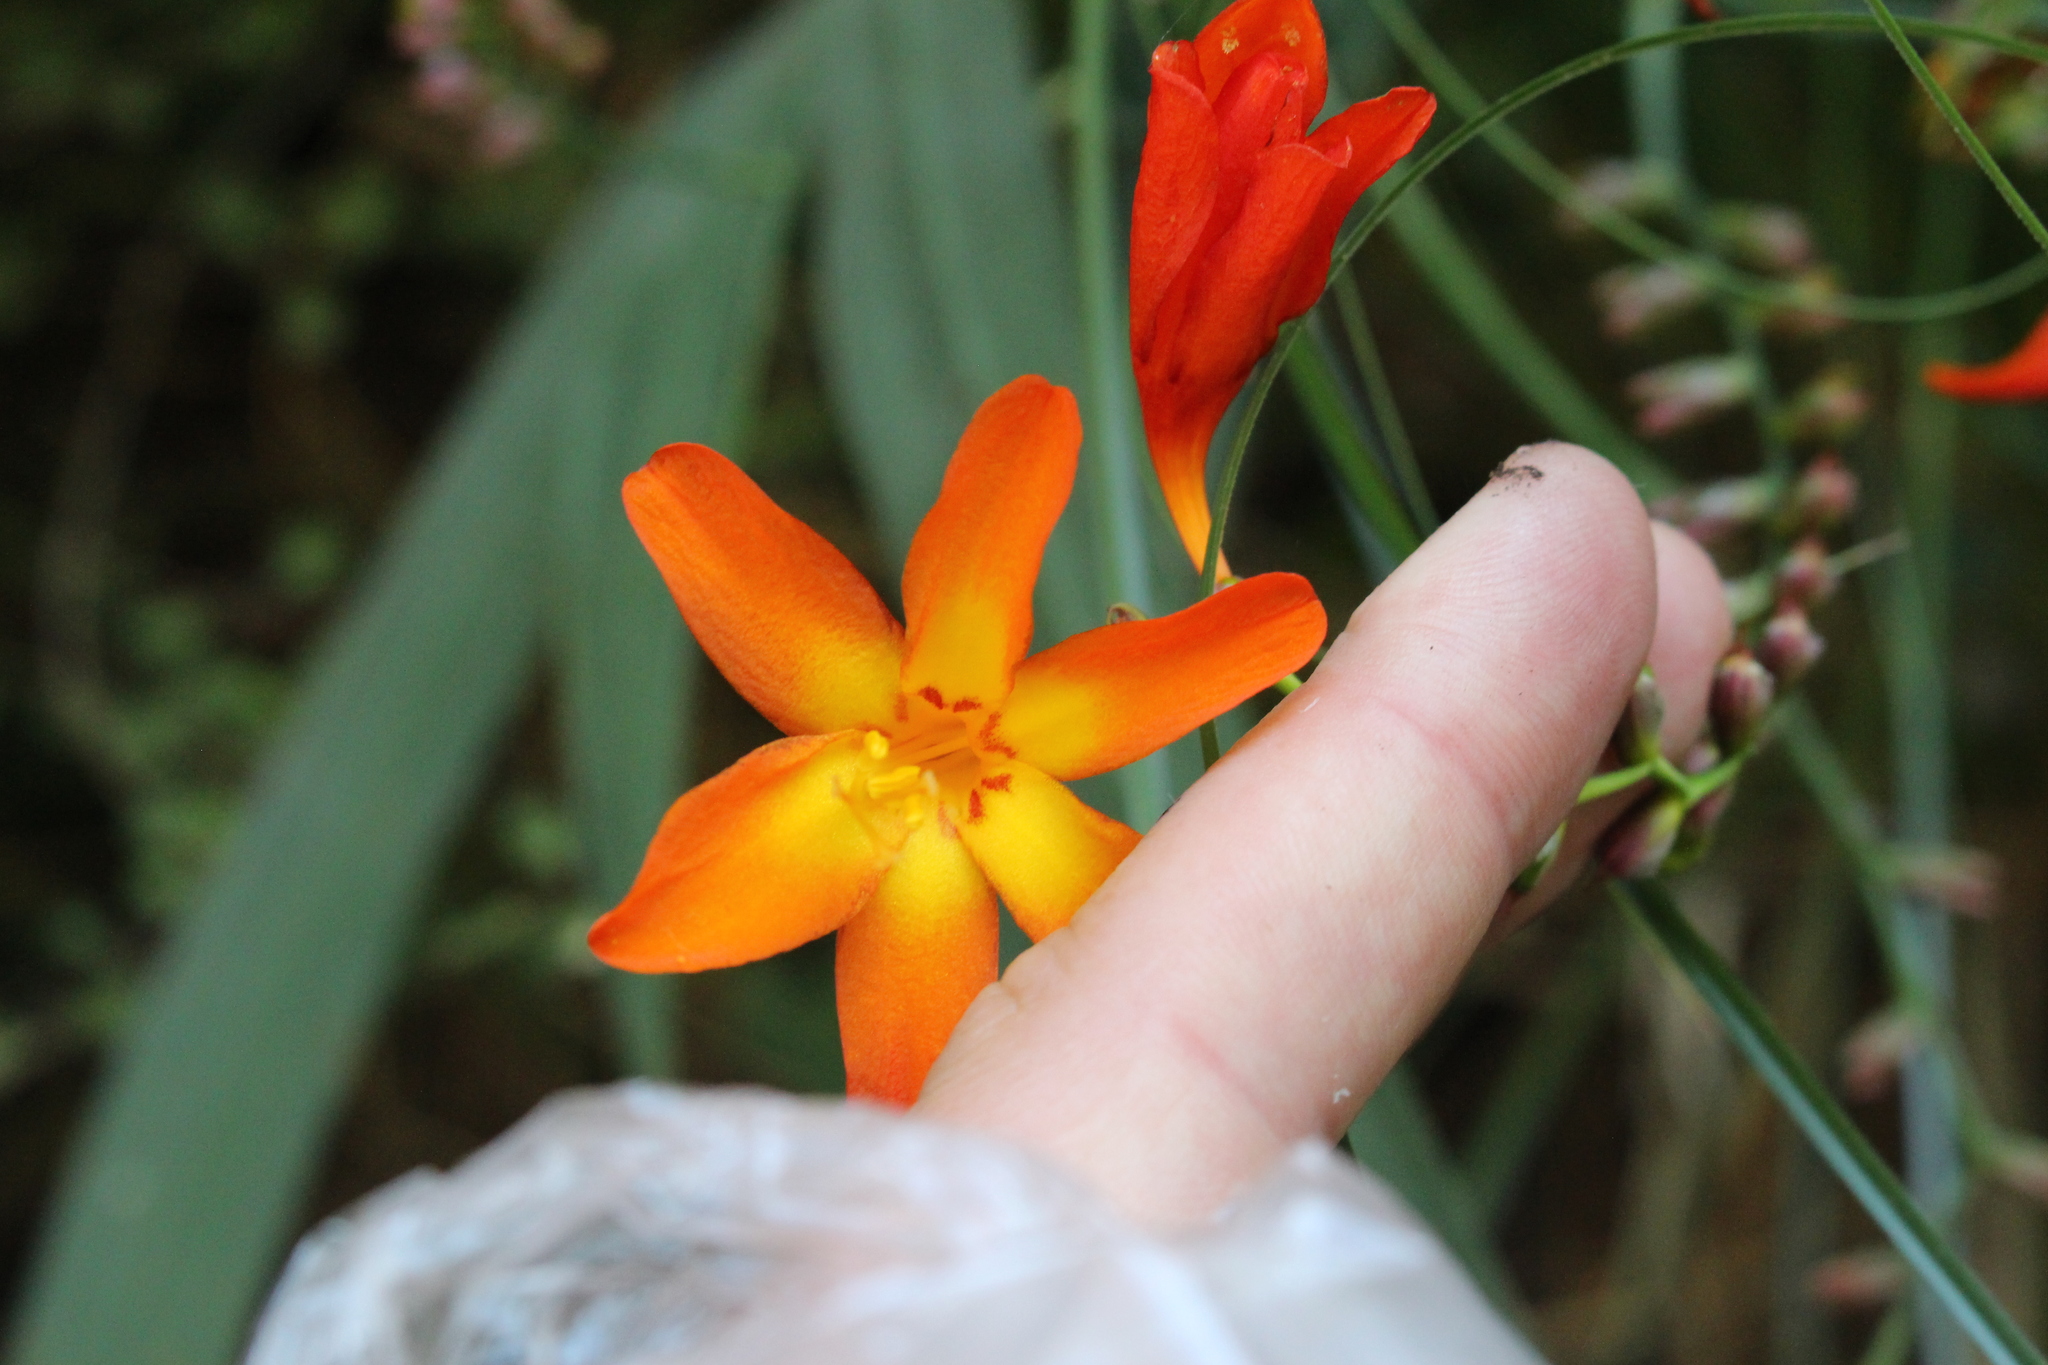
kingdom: Plantae
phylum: Tracheophyta
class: Liliopsida
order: Asparagales
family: Iridaceae
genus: Crocosmia
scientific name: Crocosmia crocosmiiflora
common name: Montbretia
